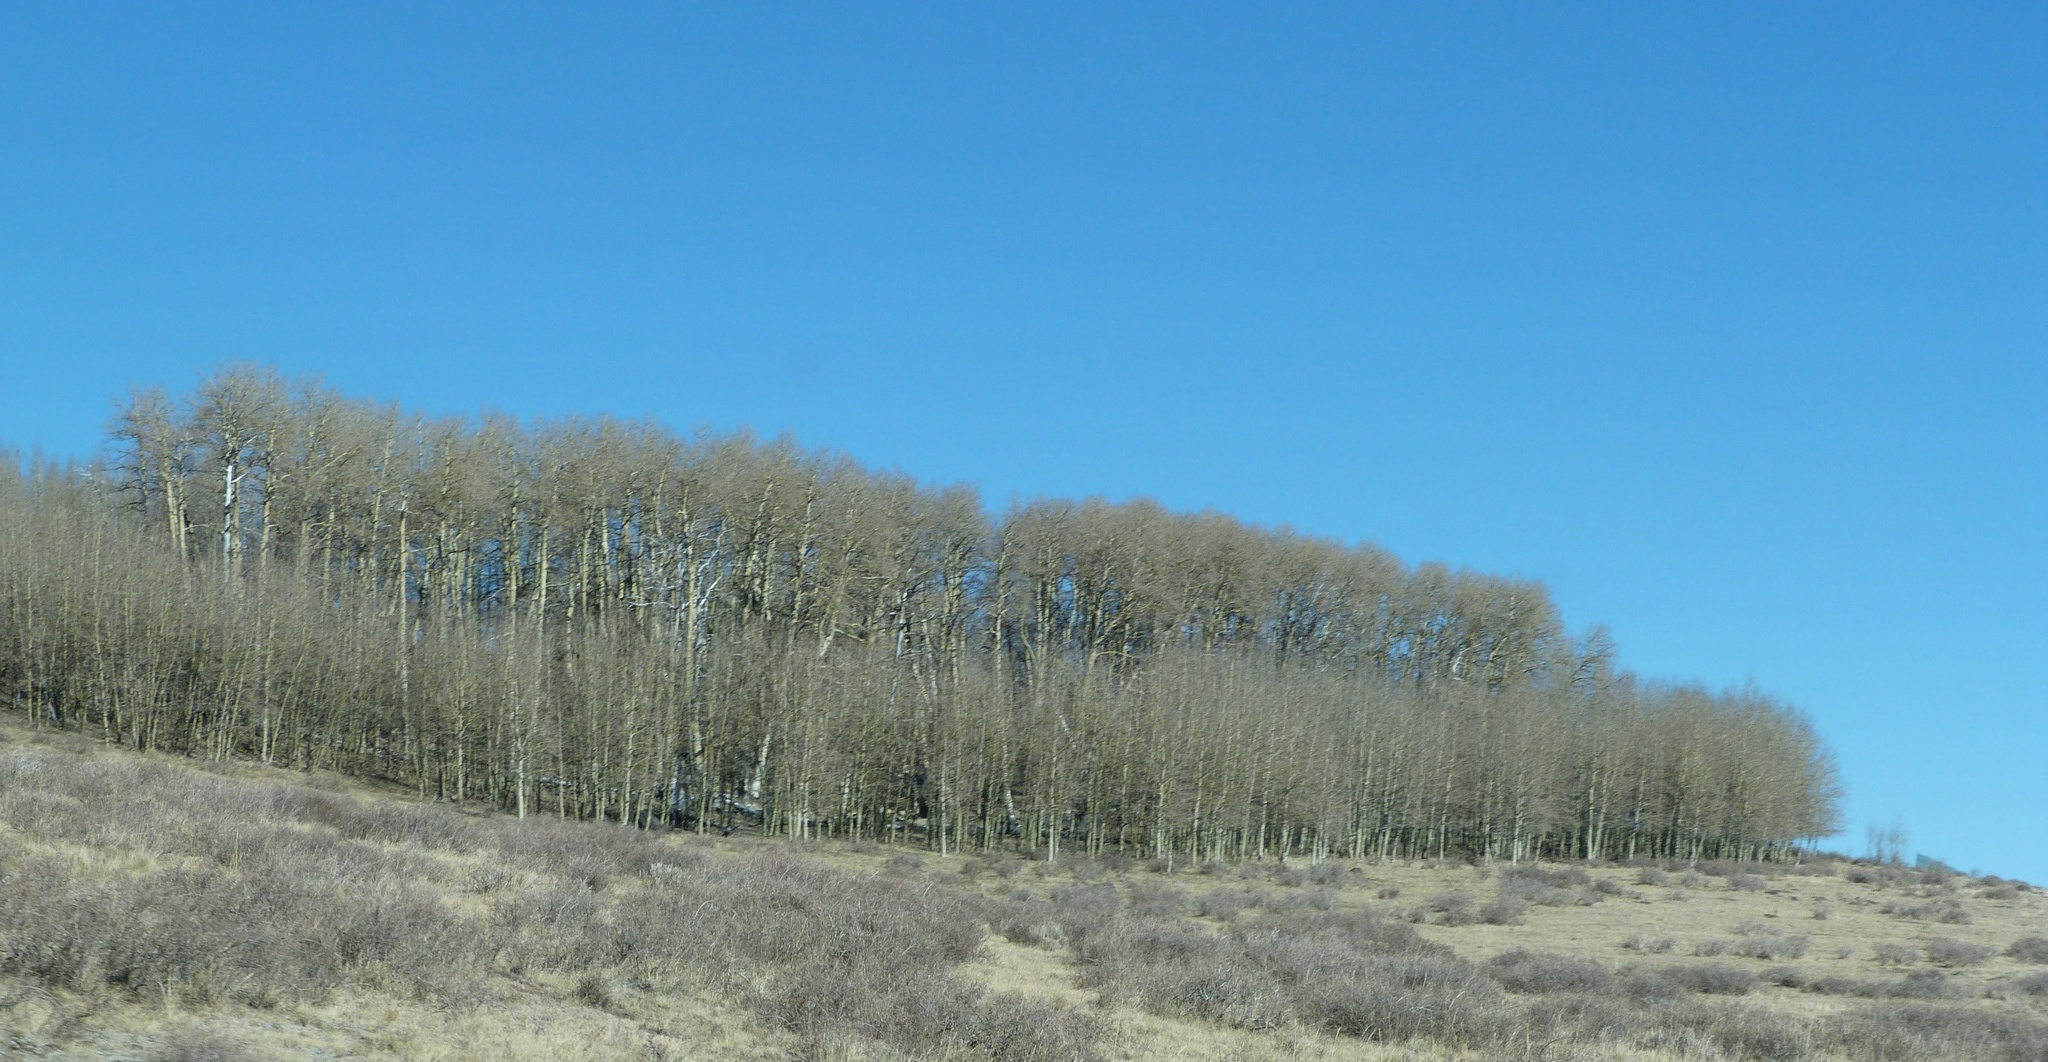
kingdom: Plantae
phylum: Tracheophyta
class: Magnoliopsida
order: Malpighiales
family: Salicaceae
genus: Populus
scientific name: Populus tremuloides
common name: Quaking aspen
